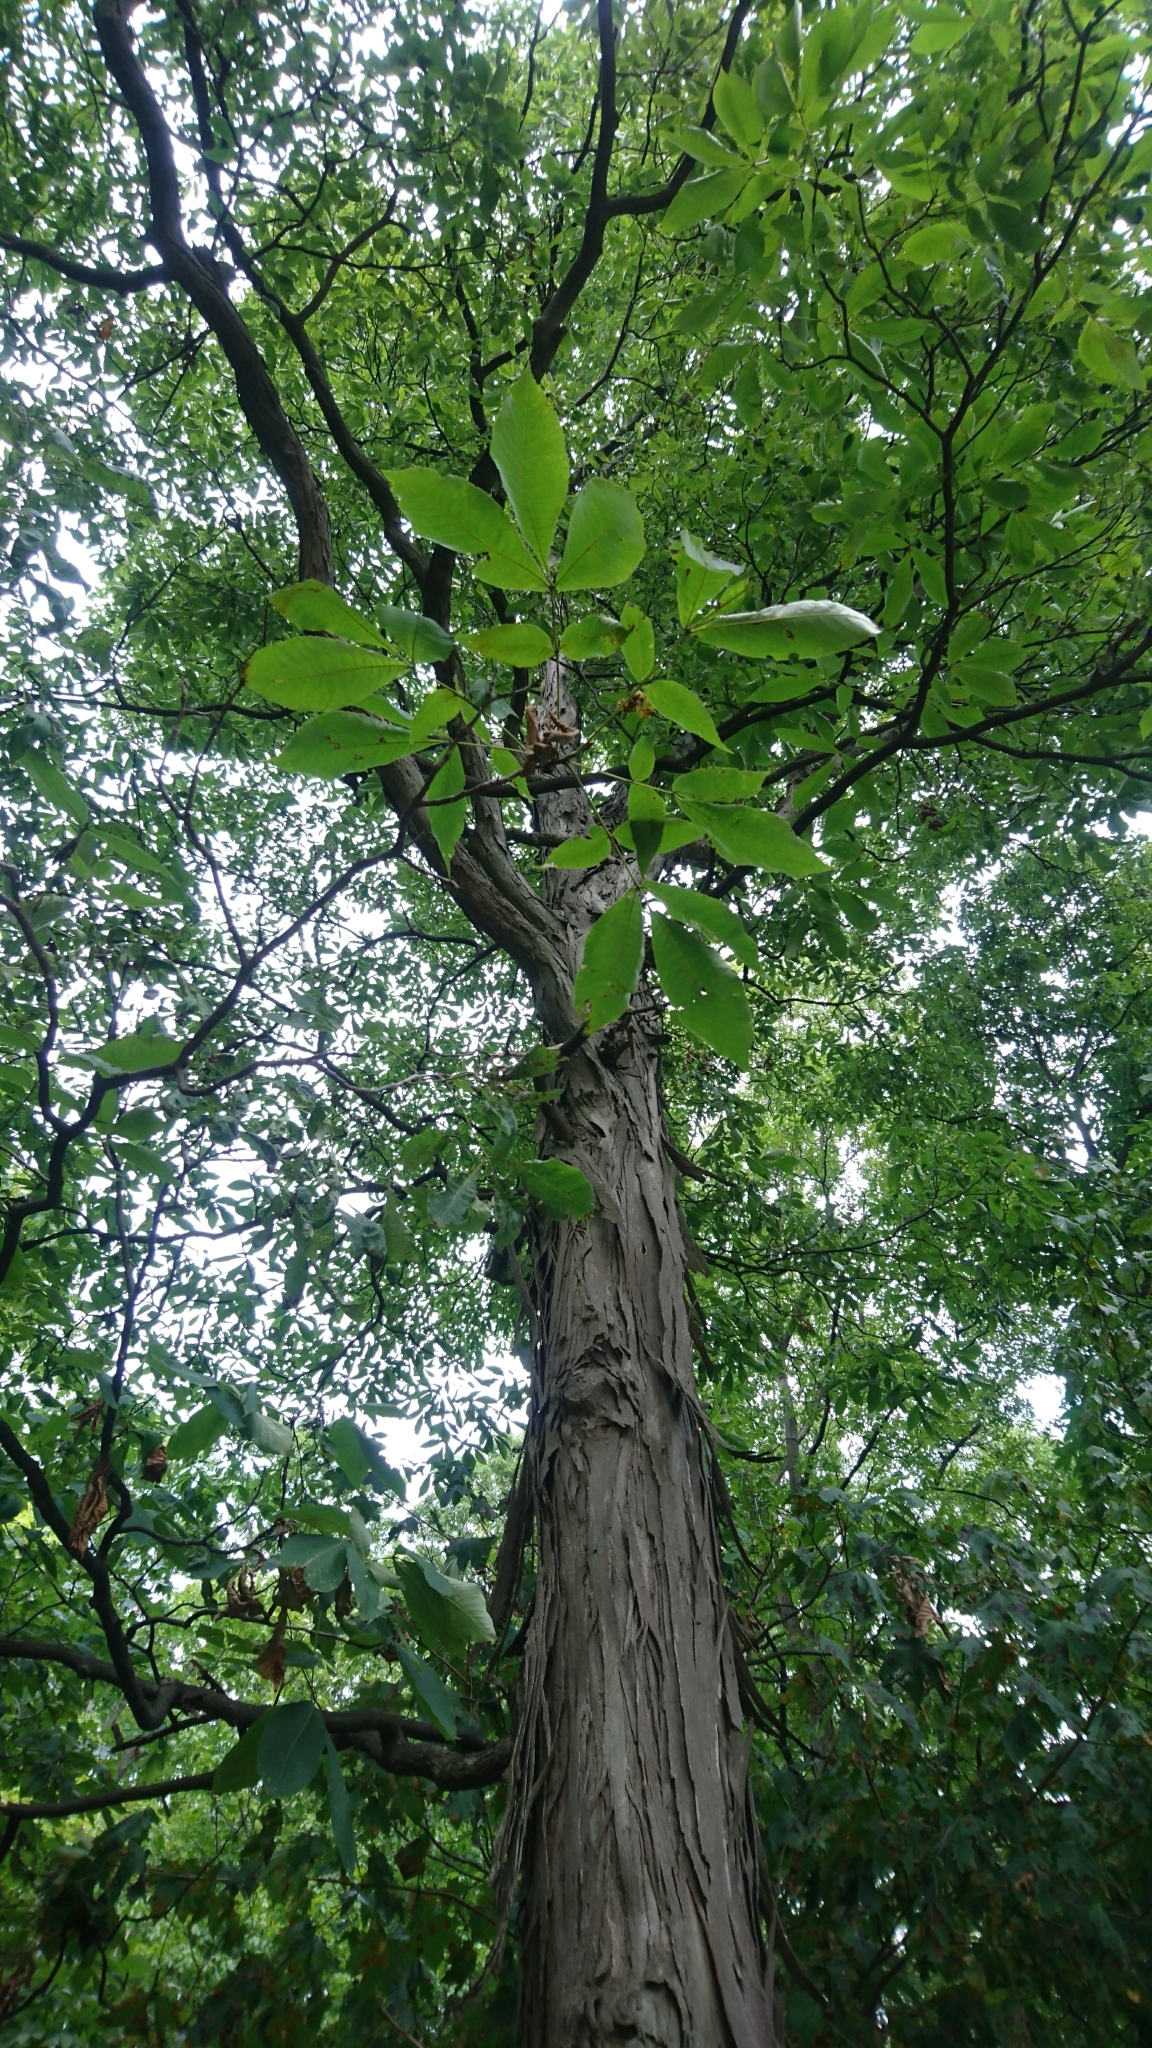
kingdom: Plantae
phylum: Tracheophyta
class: Magnoliopsida
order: Fagales
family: Juglandaceae
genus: Carya
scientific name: Carya ovata
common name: Shagbark hickory
